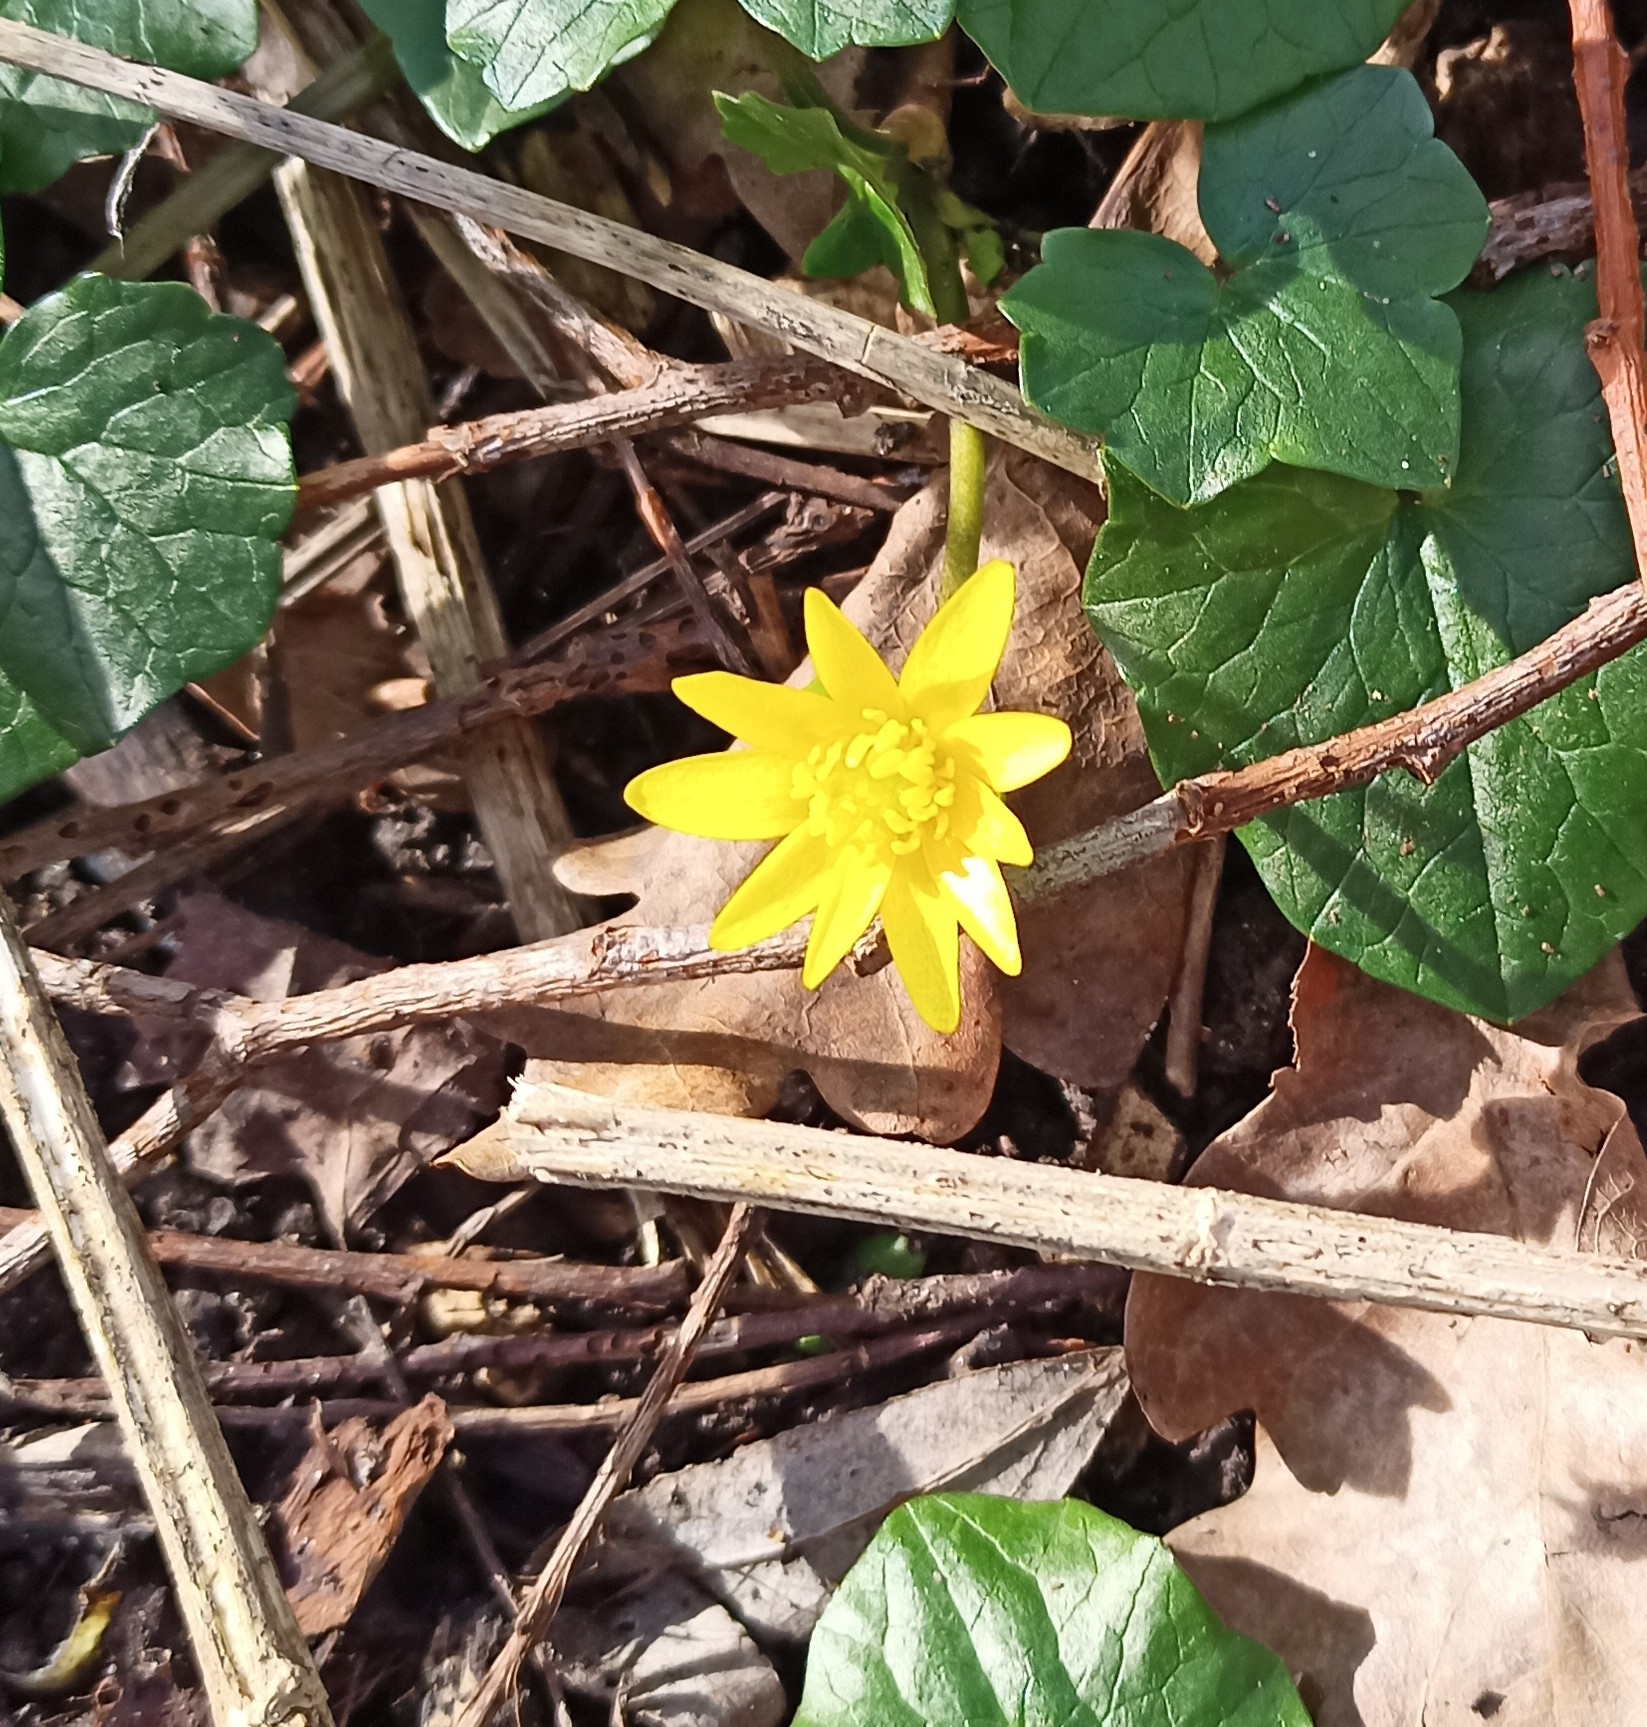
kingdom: Plantae
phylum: Tracheophyta
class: Magnoliopsida
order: Ranunculales
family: Ranunculaceae
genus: Ficaria
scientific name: Ficaria verna
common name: Lesser celandine
